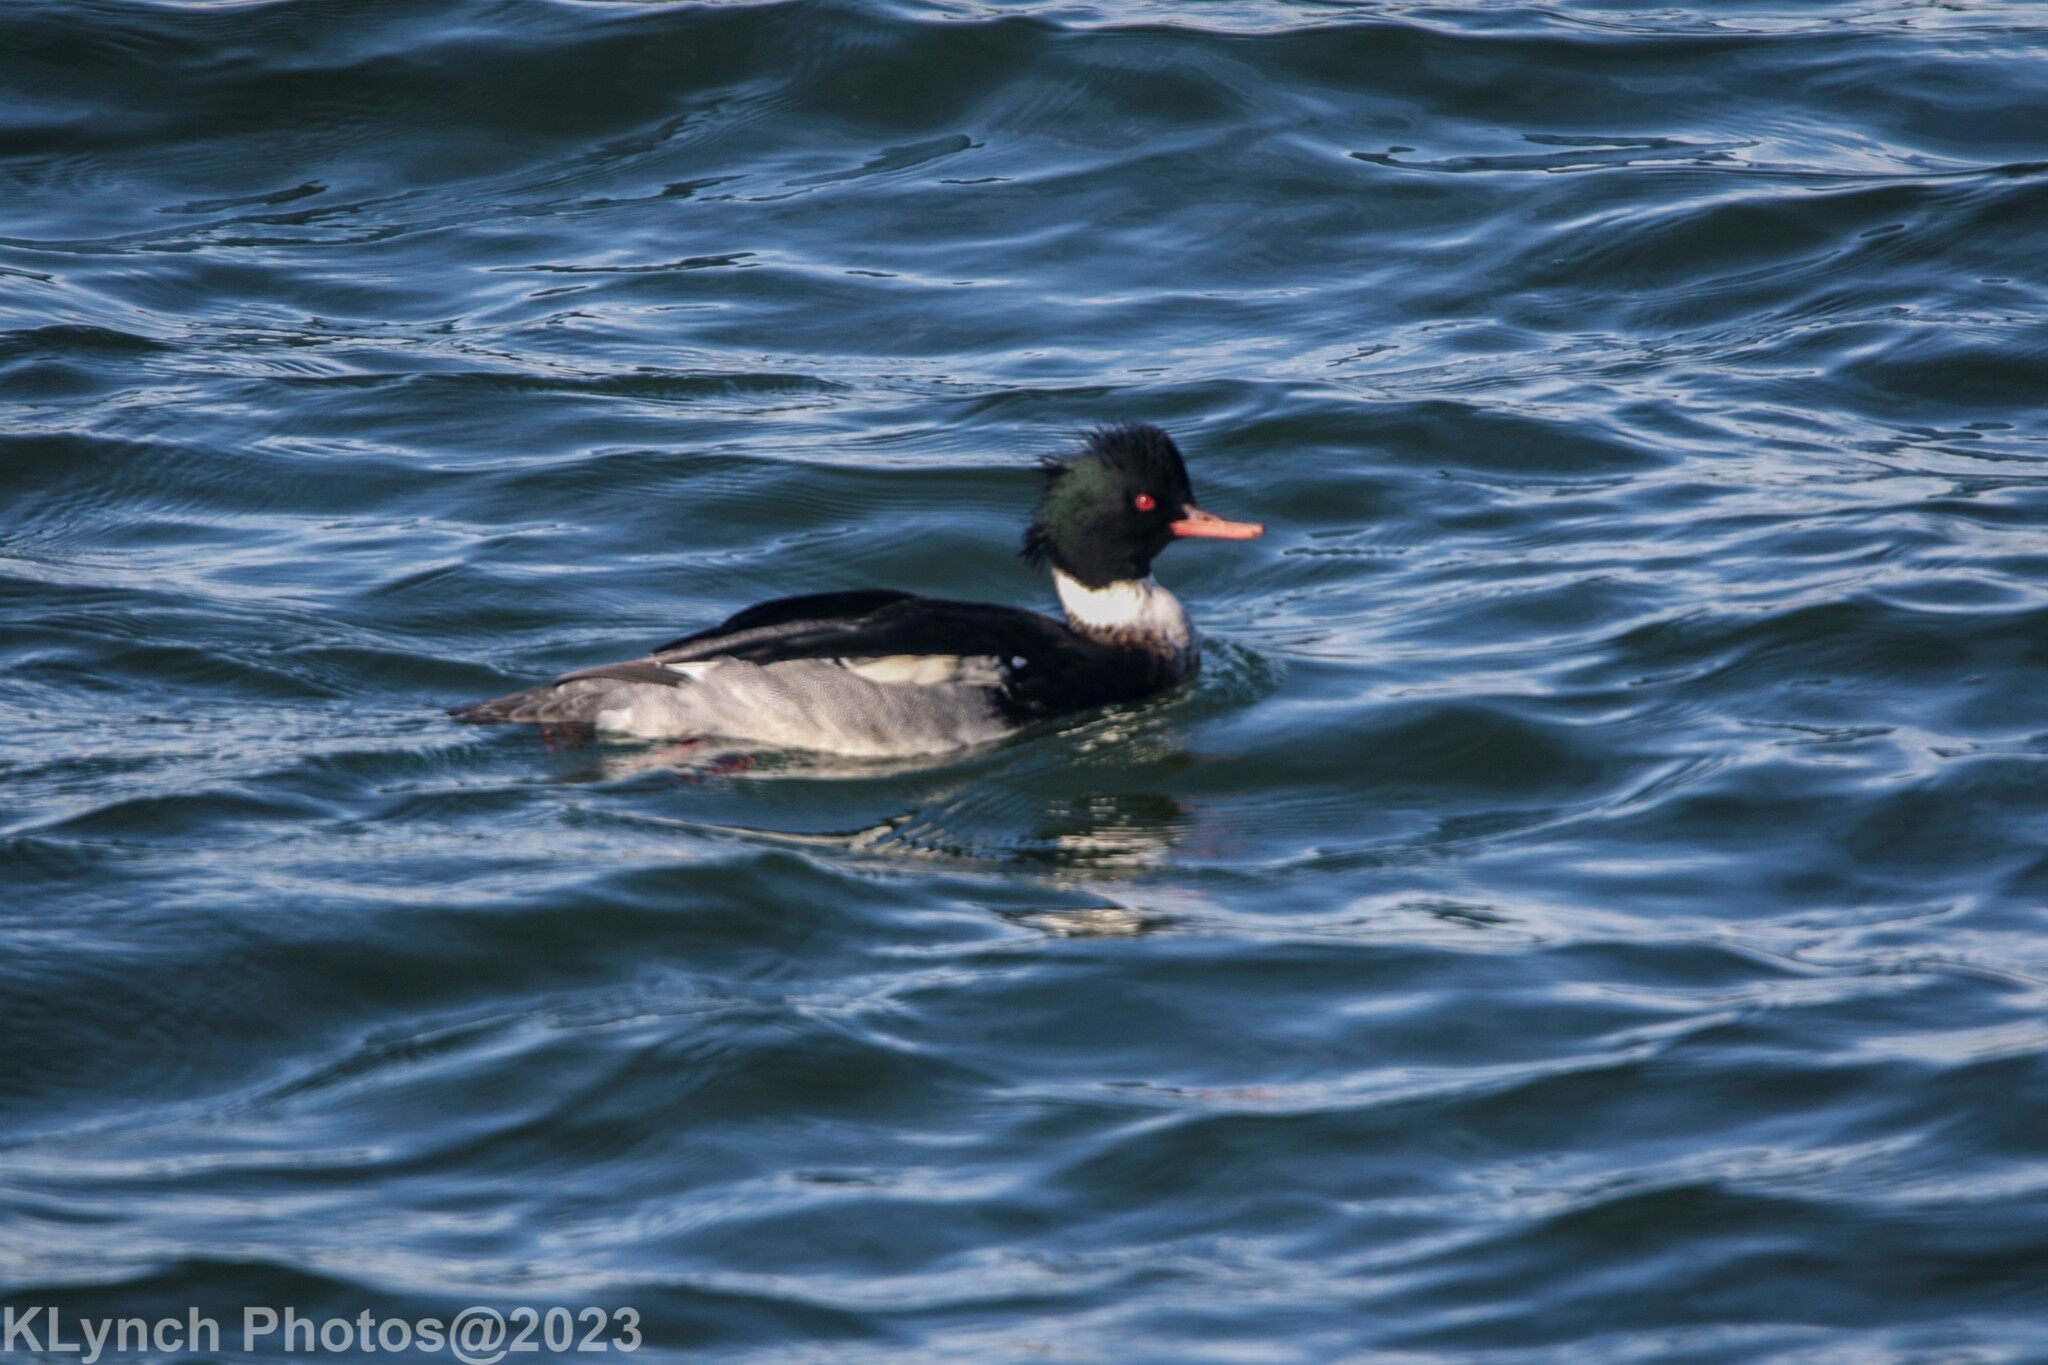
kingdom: Animalia
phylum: Chordata
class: Aves
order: Anseriformes
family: Anatidae
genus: Mergus
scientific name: Mergus serrator
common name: Red-breasted merganser
